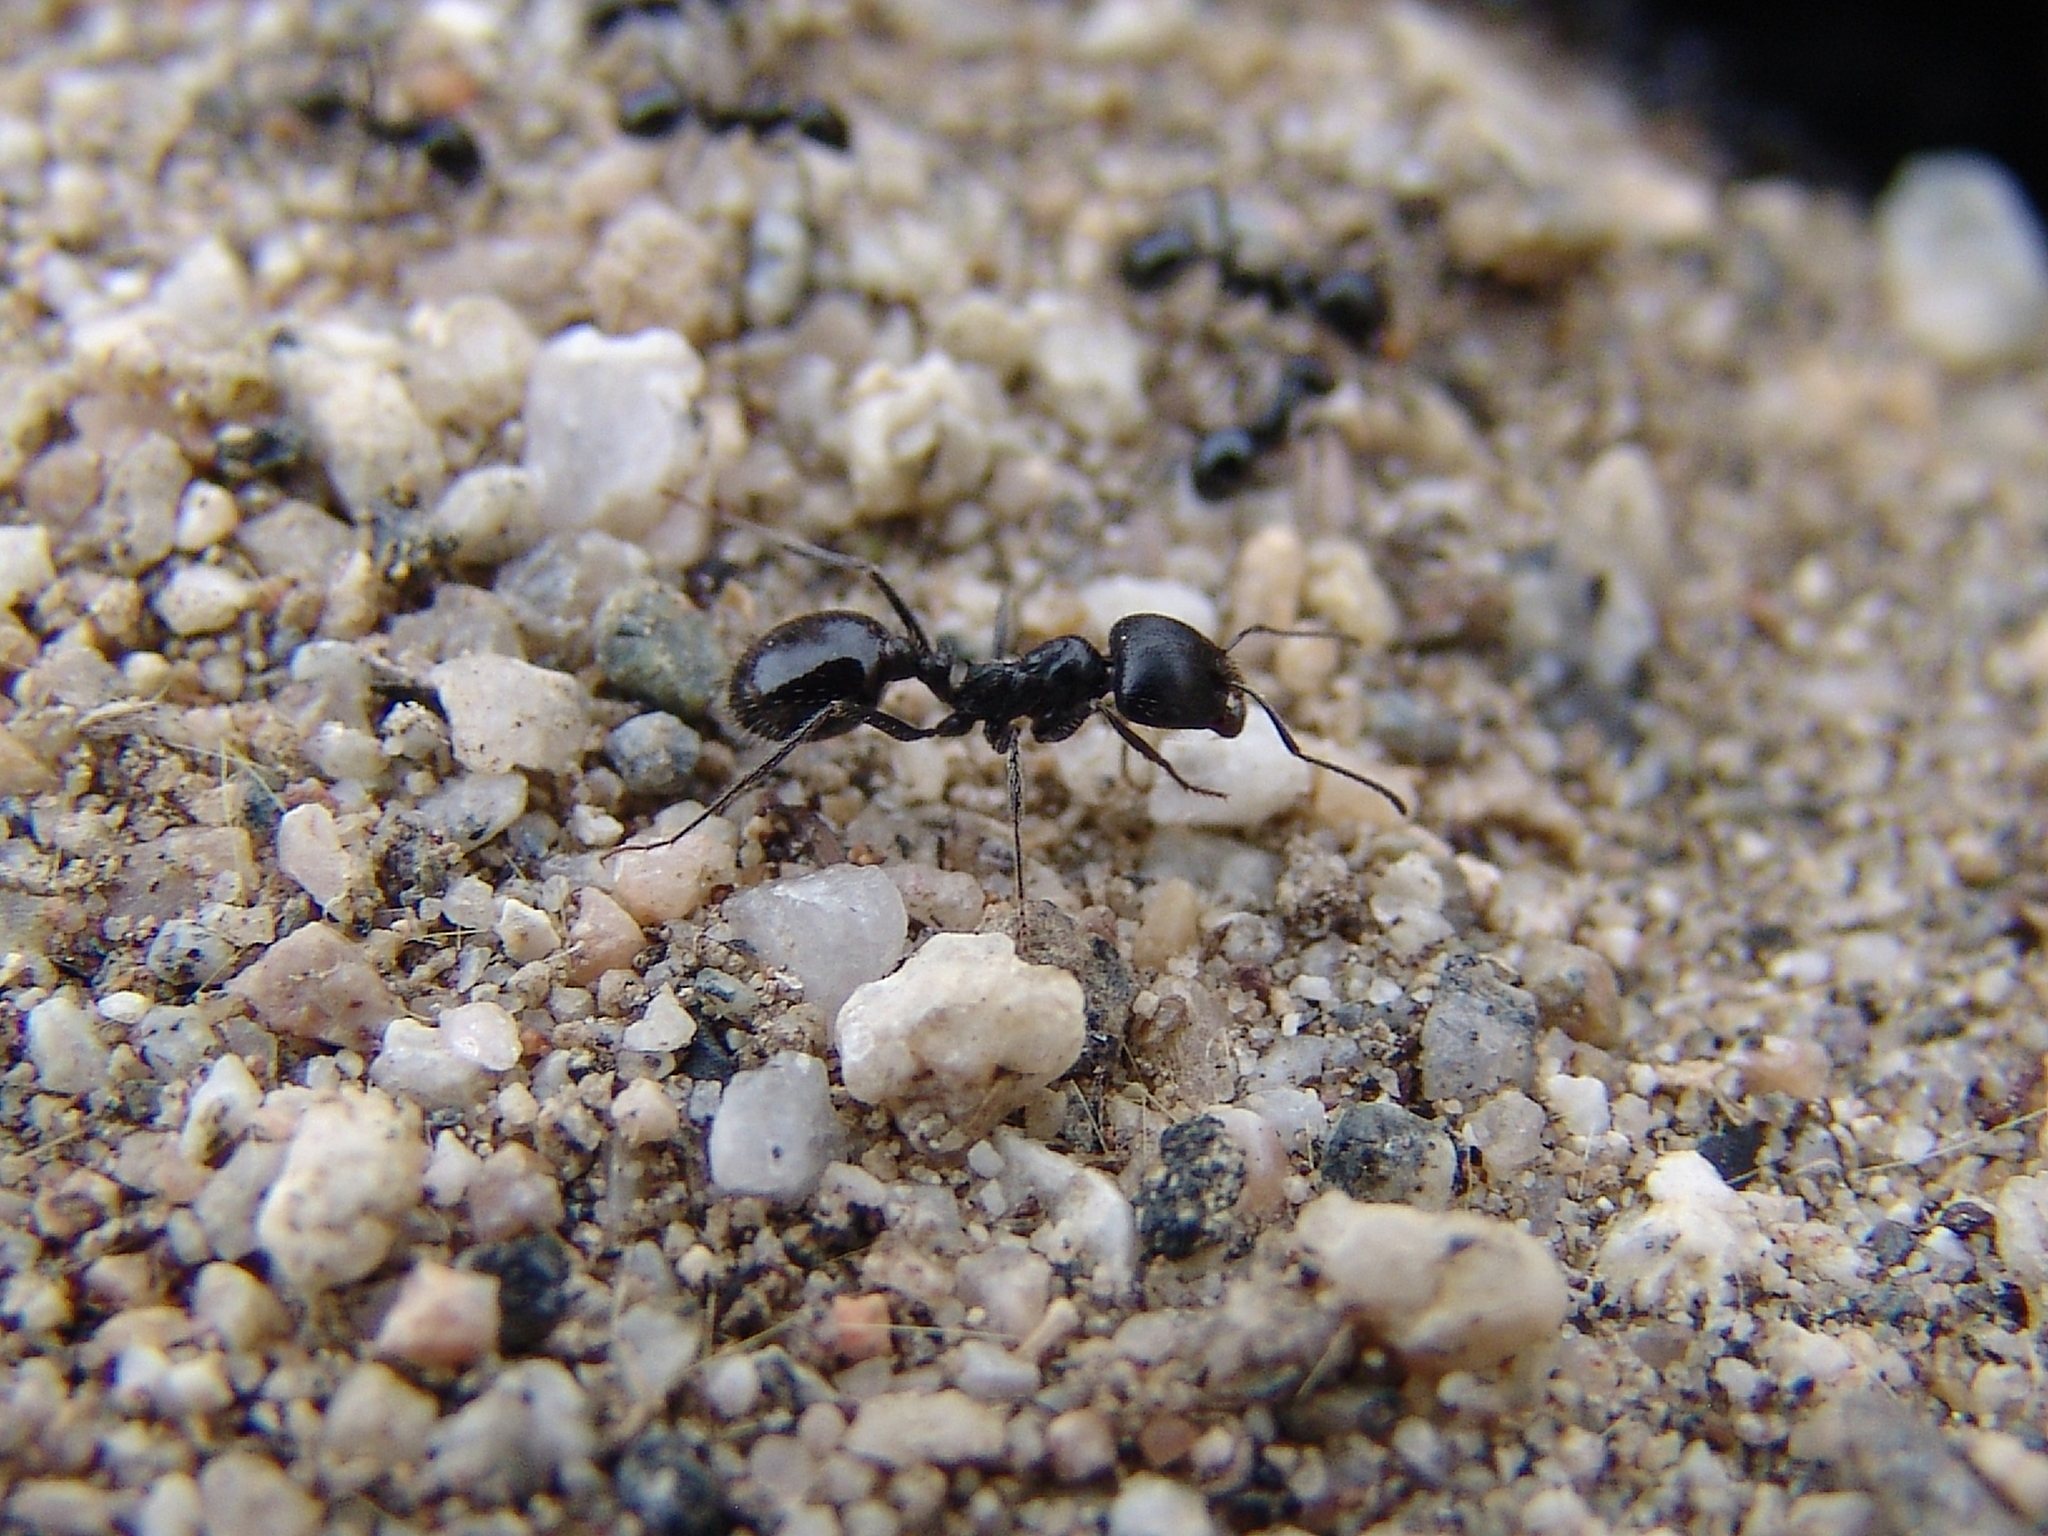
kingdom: Animalia
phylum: Arthropoda
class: Insecta
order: Hymenoptera
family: Formicidae
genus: Messor
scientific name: Messor pergandei
